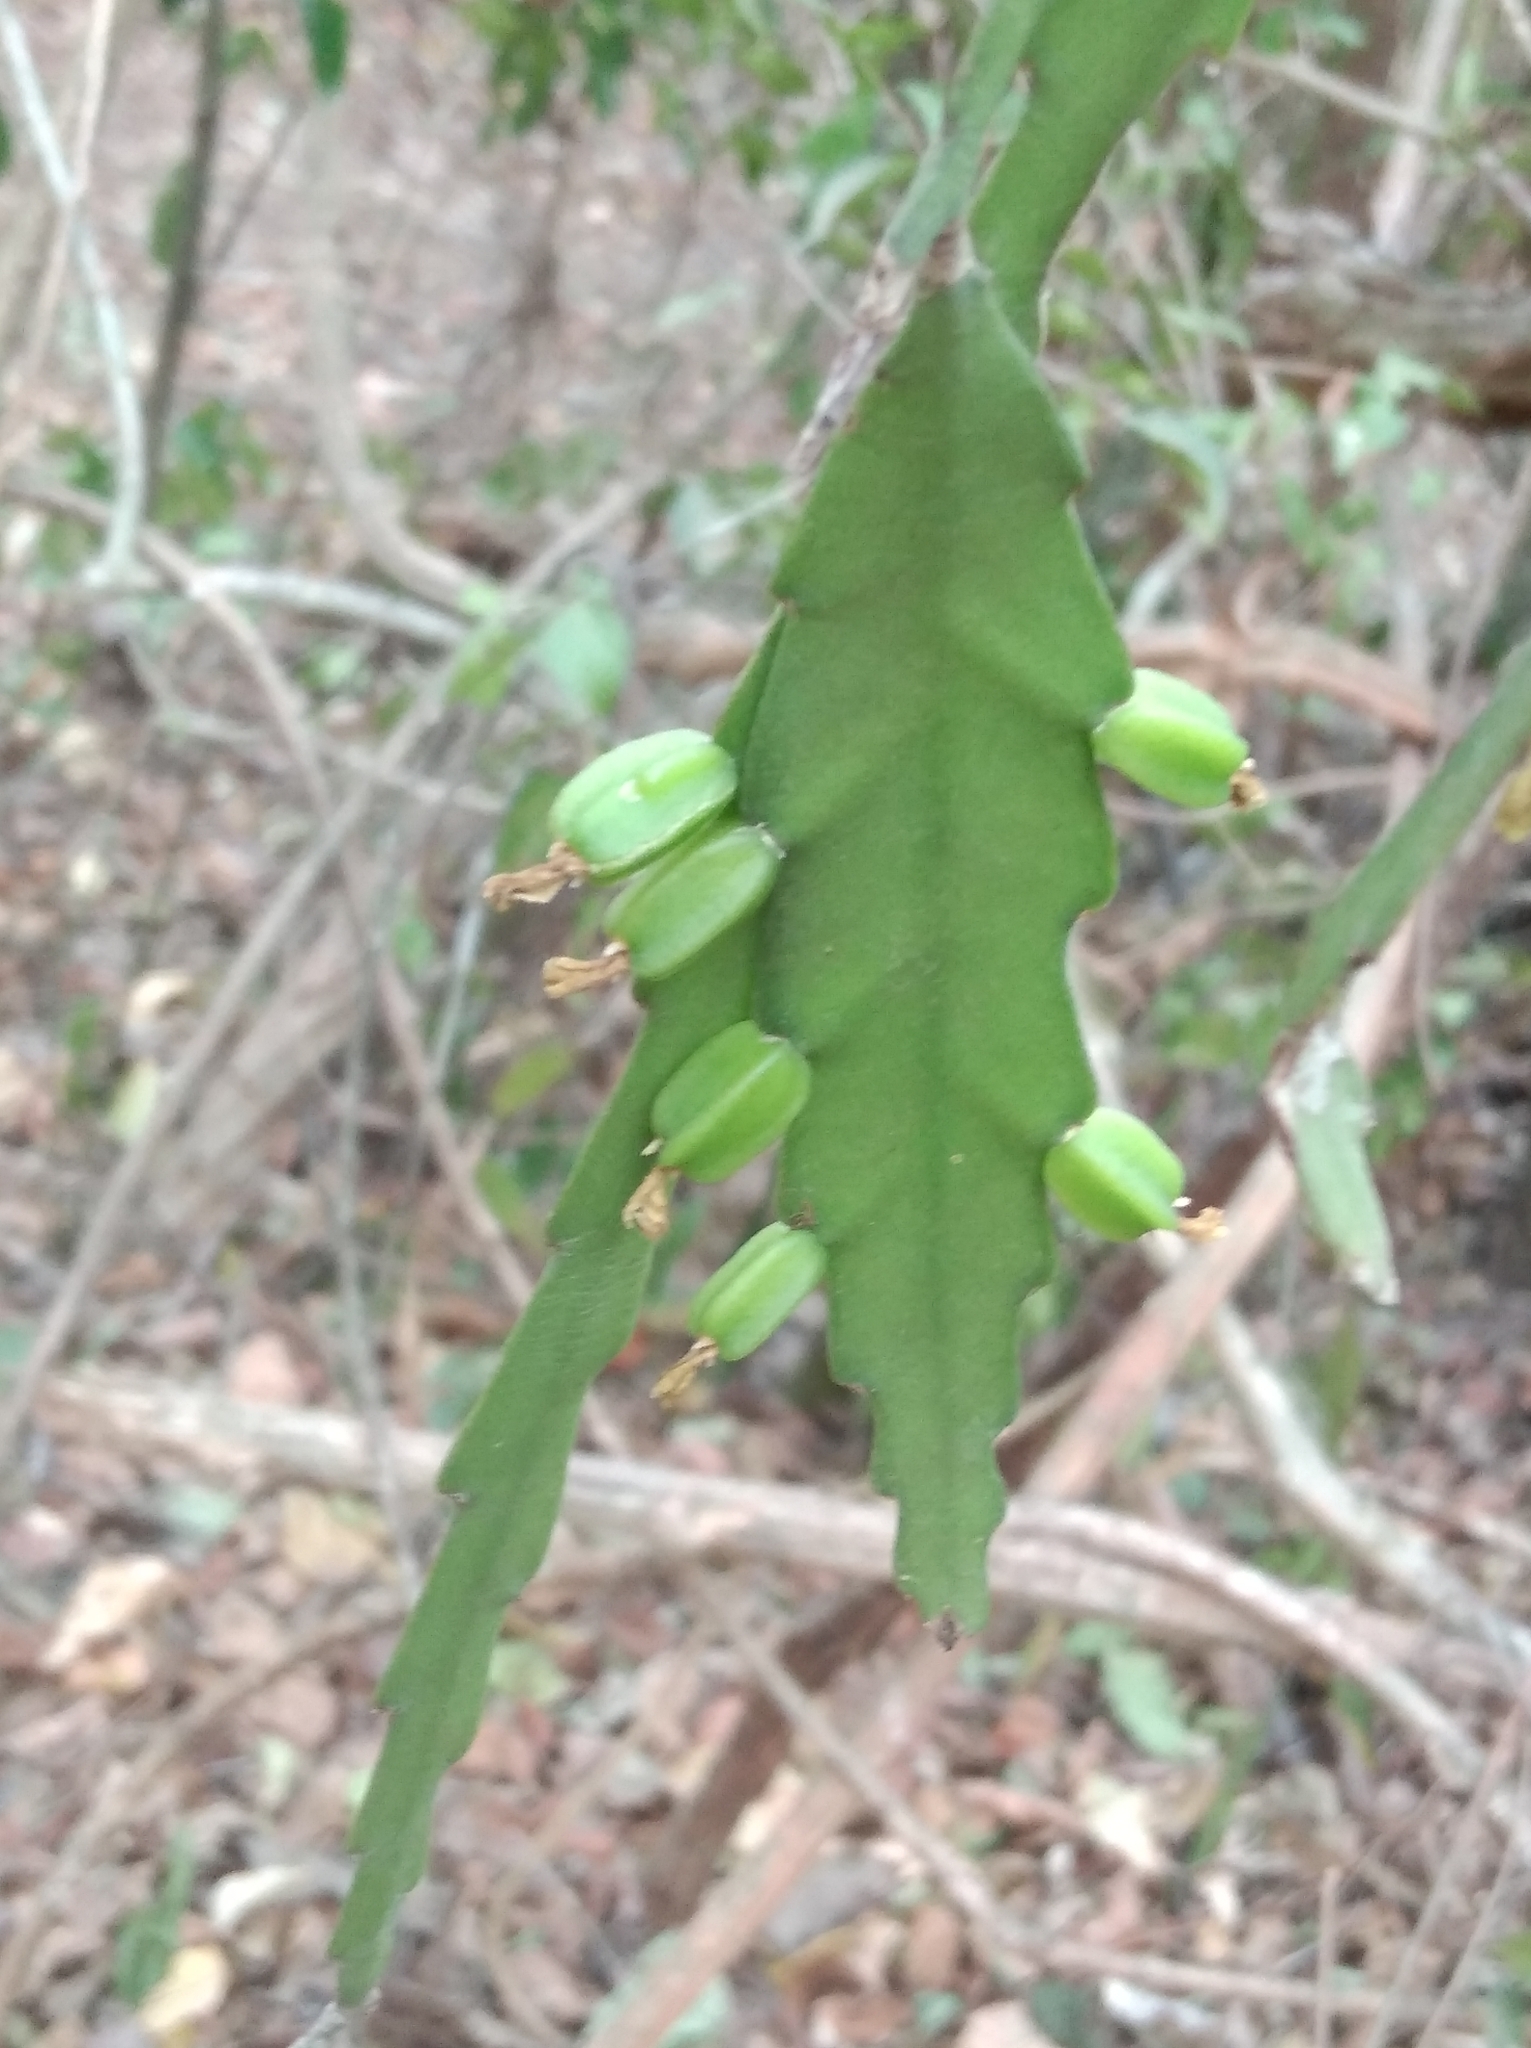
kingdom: Plantae
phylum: Tracheophyta
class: Magnoliopsida
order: Caryophyllales
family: Cactaceae
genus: Epiphyllum
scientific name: Epiphyllum phyllanthus
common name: Climbing cactus
